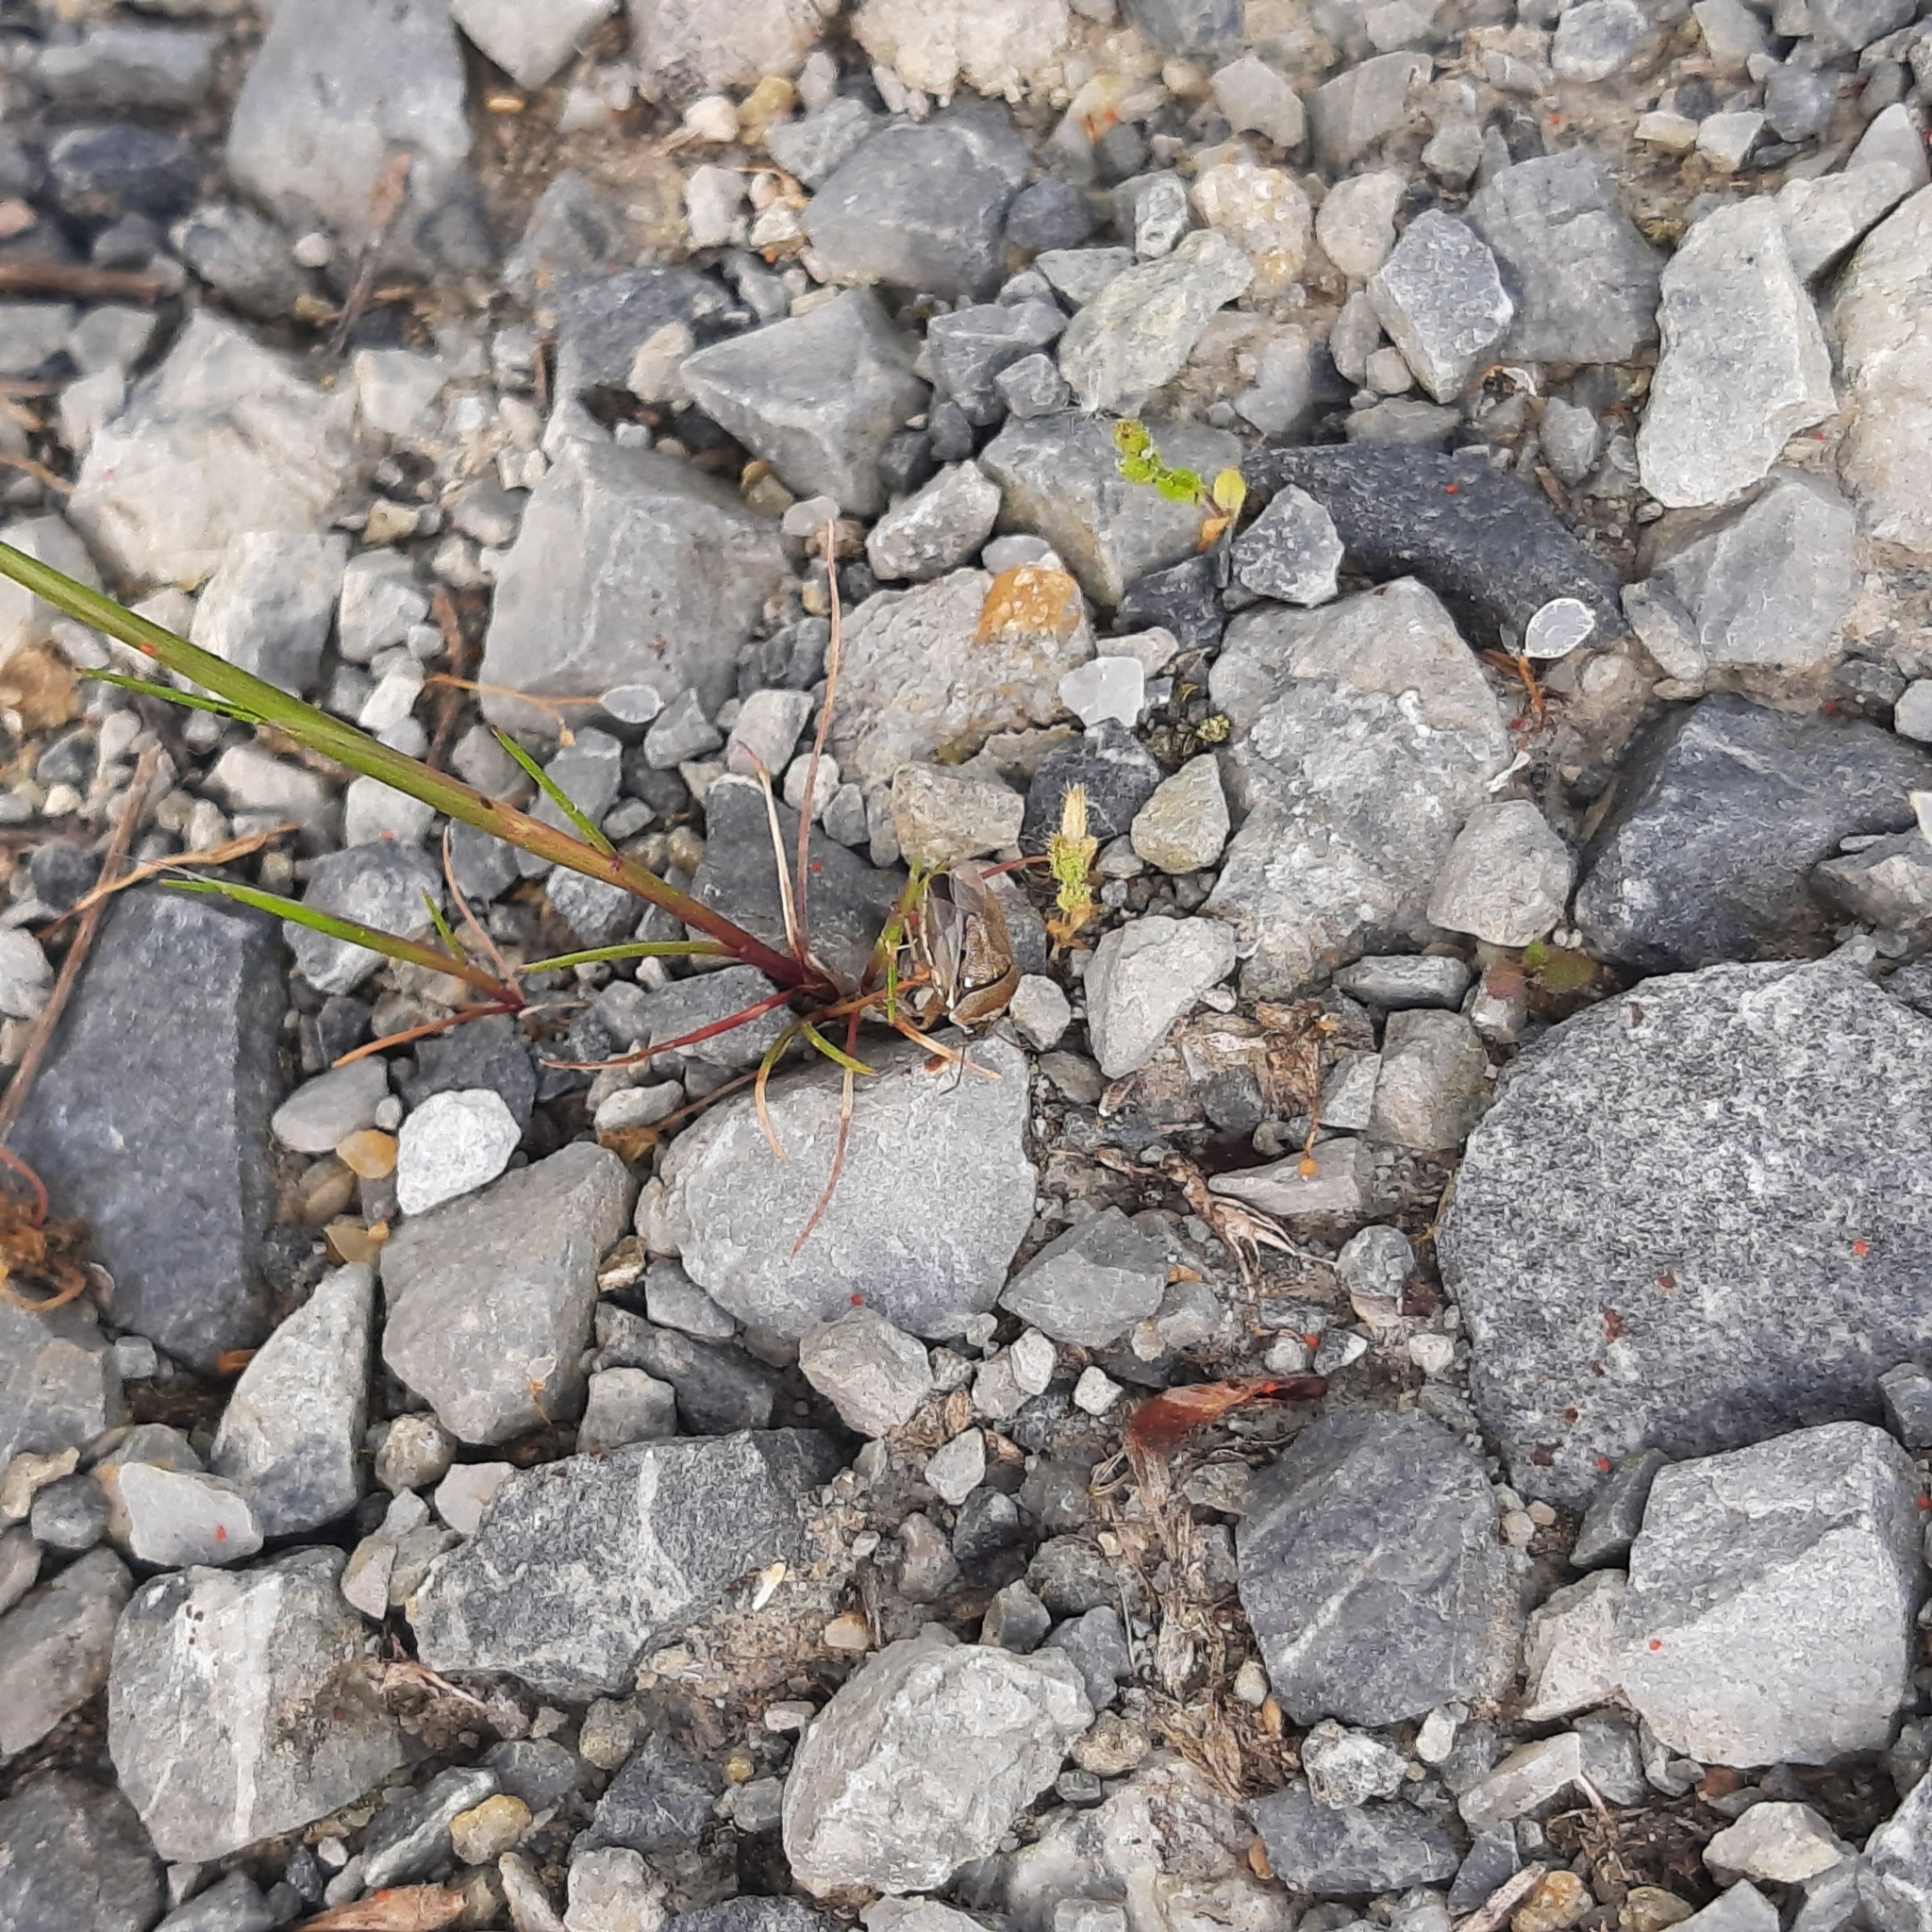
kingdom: Animalia
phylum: Arthropoda
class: Insecta
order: Hemiptera
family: Pentatomidae
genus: Eysarcoris
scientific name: Eysarcoris ventralis
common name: White-spotted stink bug
